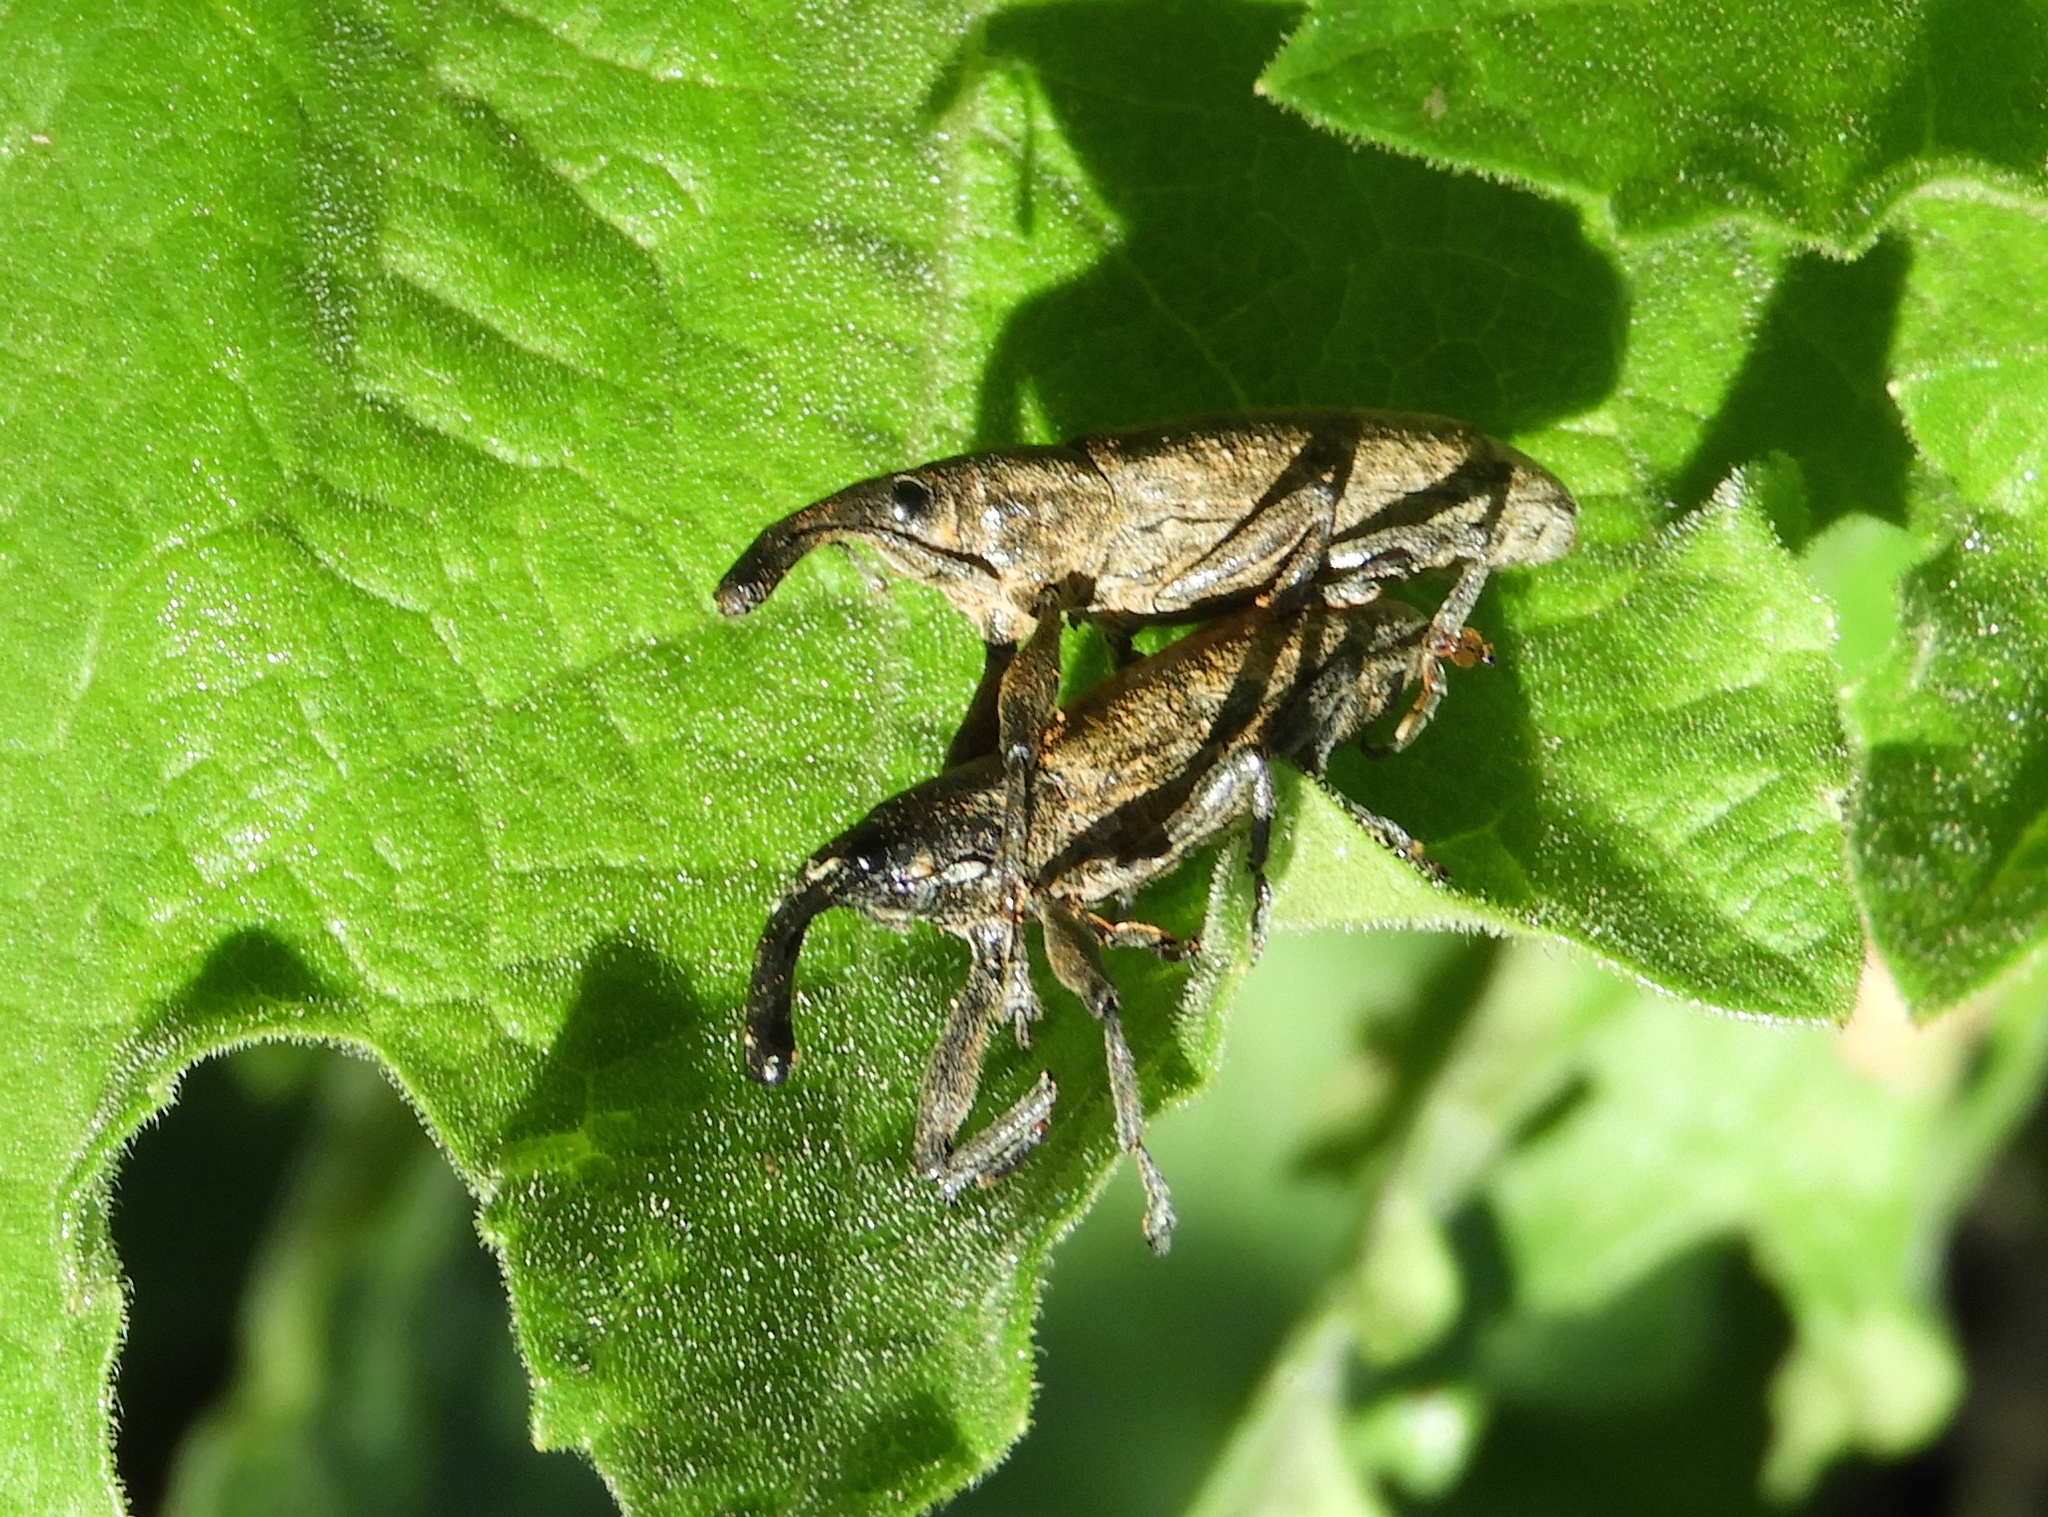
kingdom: Animalia
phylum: Arthropoda
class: Insecta
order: Coleoptera
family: Curculionidae
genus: Lixus
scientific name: Lixus
